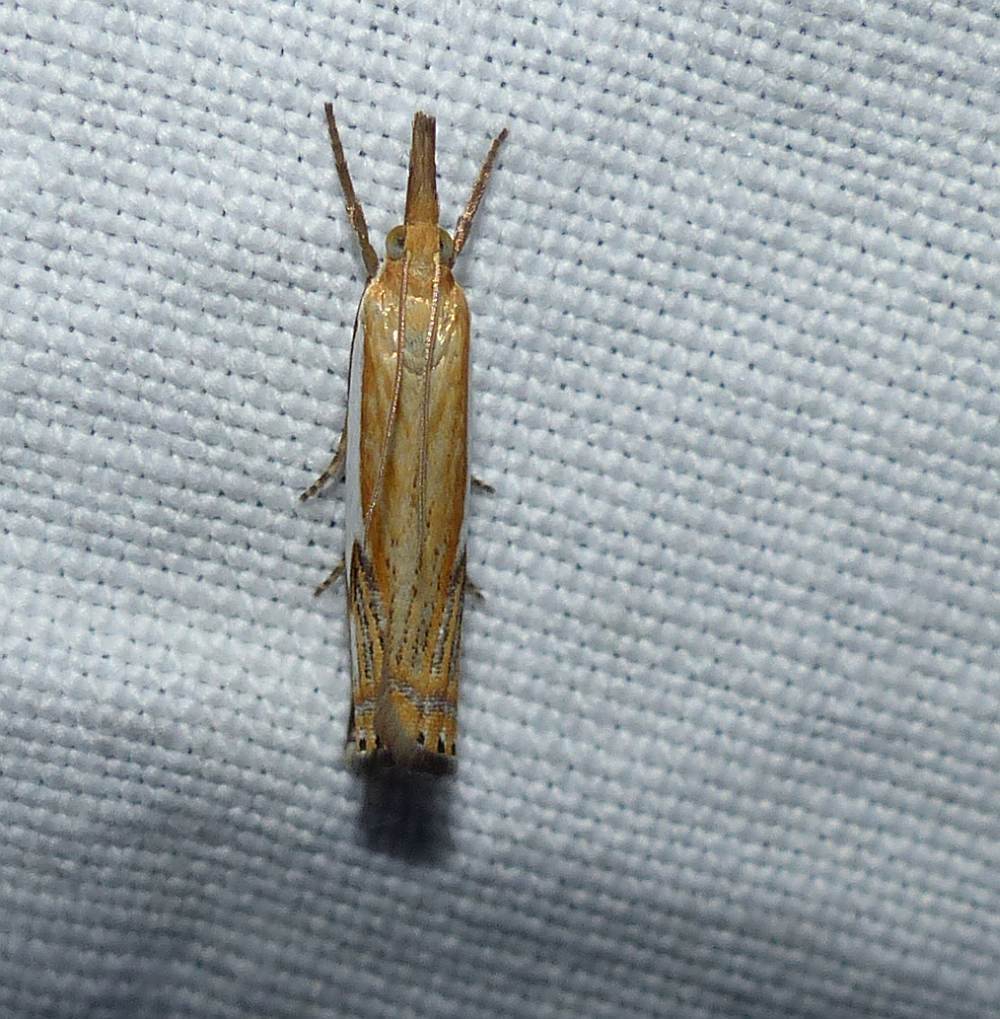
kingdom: Animalia
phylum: Arthropoda
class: Insecta
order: Lepidoptera
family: Crambidae
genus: Crambus
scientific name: Crambus agitatellus
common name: Double-banded grass-veneer
